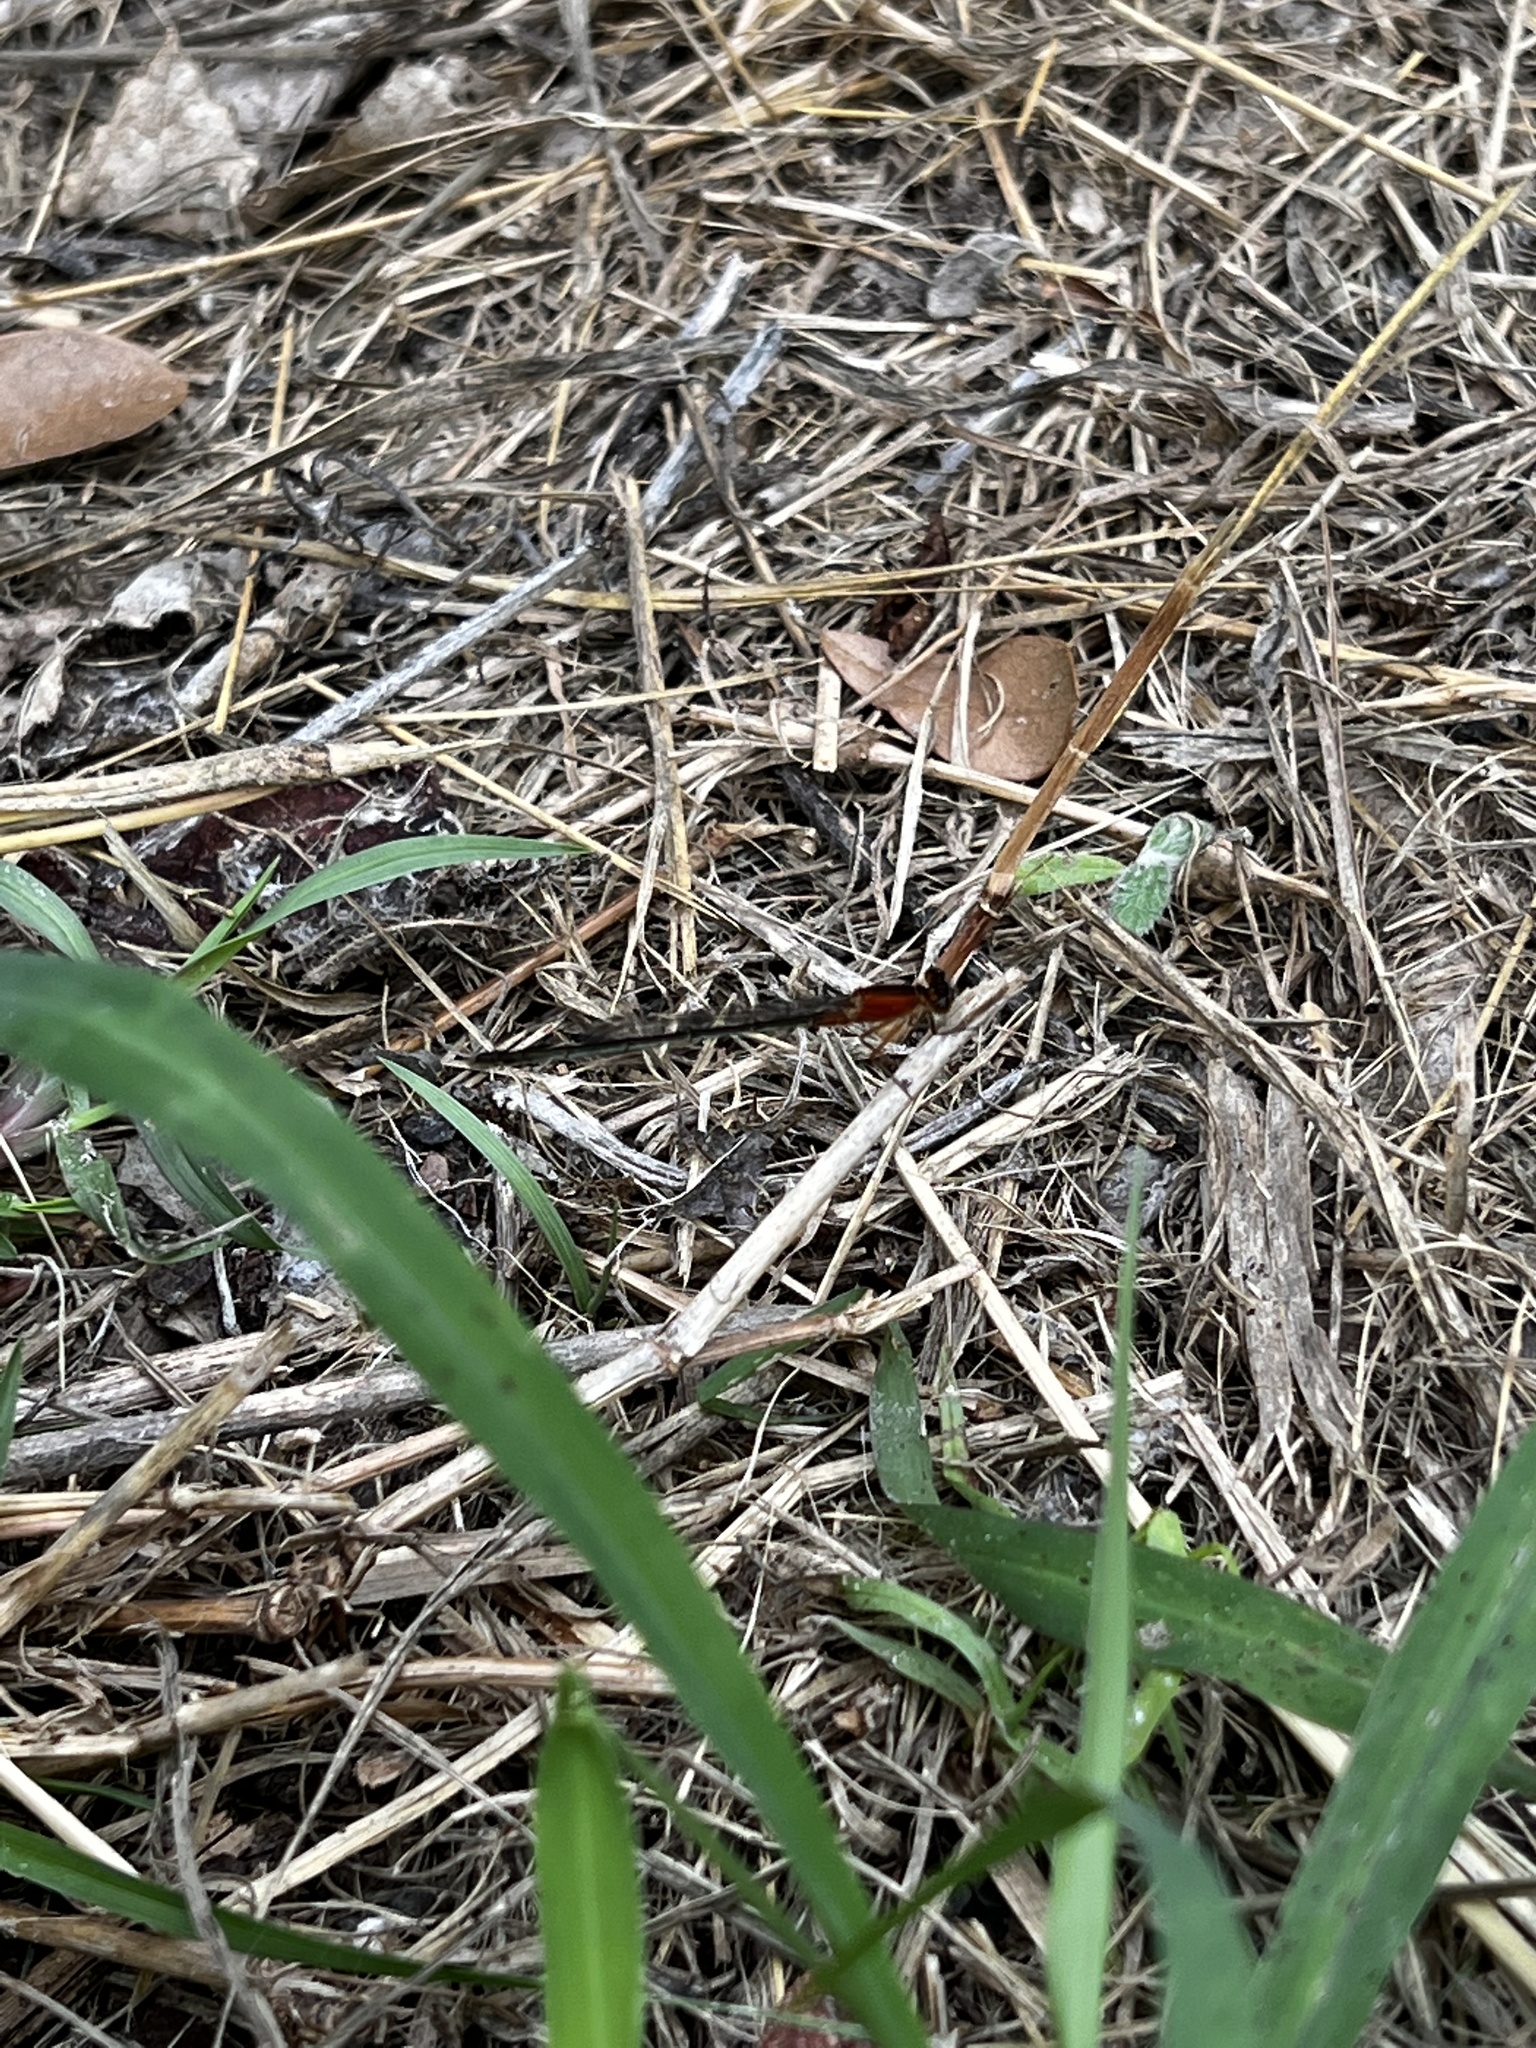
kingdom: Animalia
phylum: Arthropoda
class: Insecta
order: Odonata
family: Coenagrionidae
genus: Ischnura
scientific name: Ischnura ramburii
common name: Rambur's forktail
